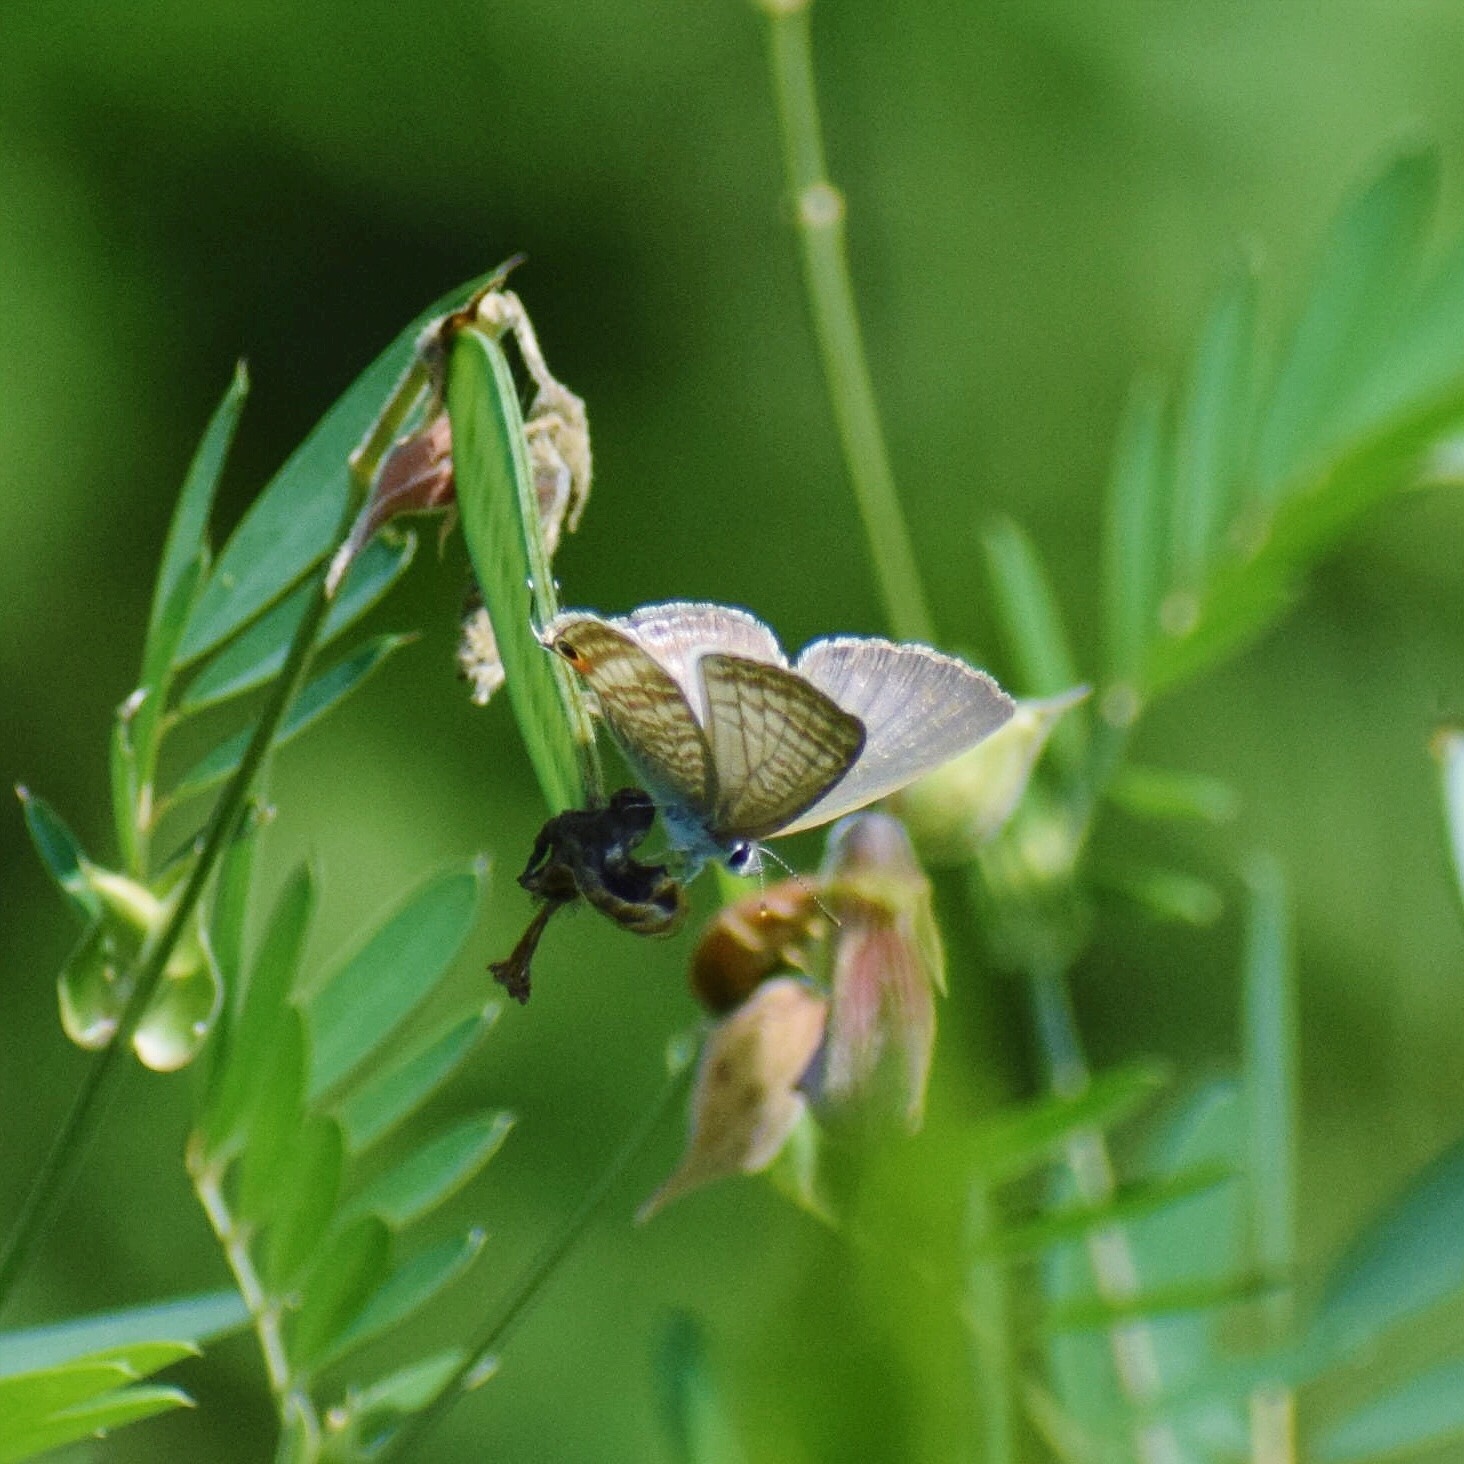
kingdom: Animalia
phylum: Arthropoda
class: Insecta
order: Lepidoptera
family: Lycaenidae
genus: Lampides
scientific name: Lampides boeticus
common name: Long-tailed blue
